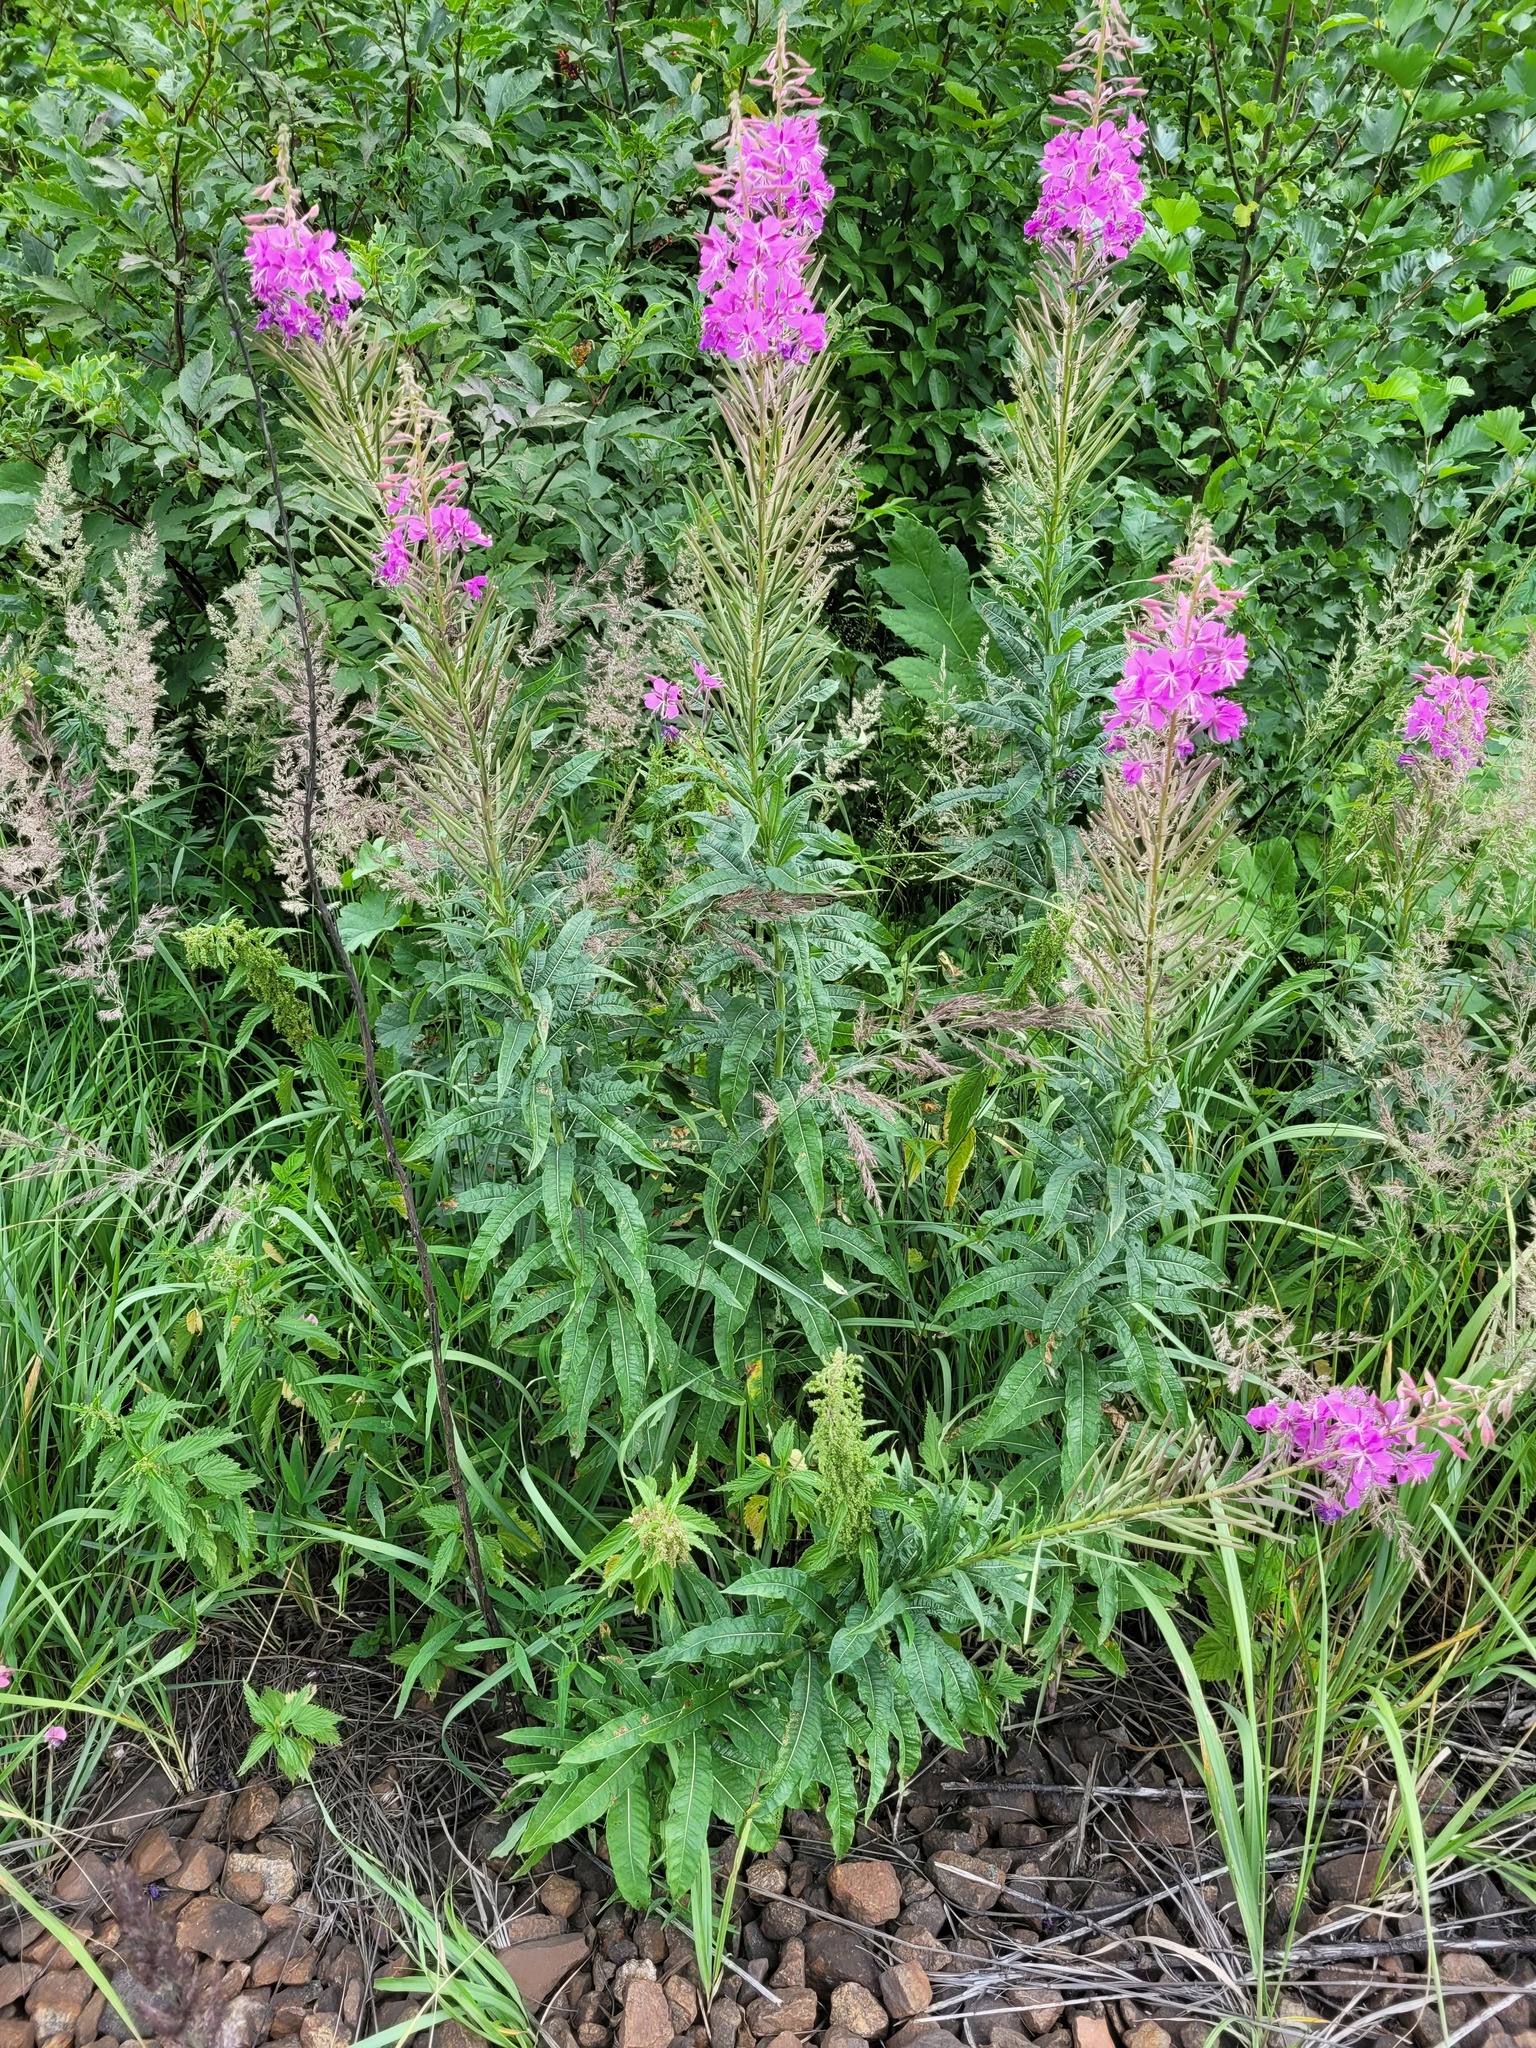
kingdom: Plantae
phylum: Tracheophyta
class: Magnoliopsida
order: Myrtales
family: Onagraceae
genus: Chamaenerion
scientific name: Chamaenerion angustifolium
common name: Fireweed
